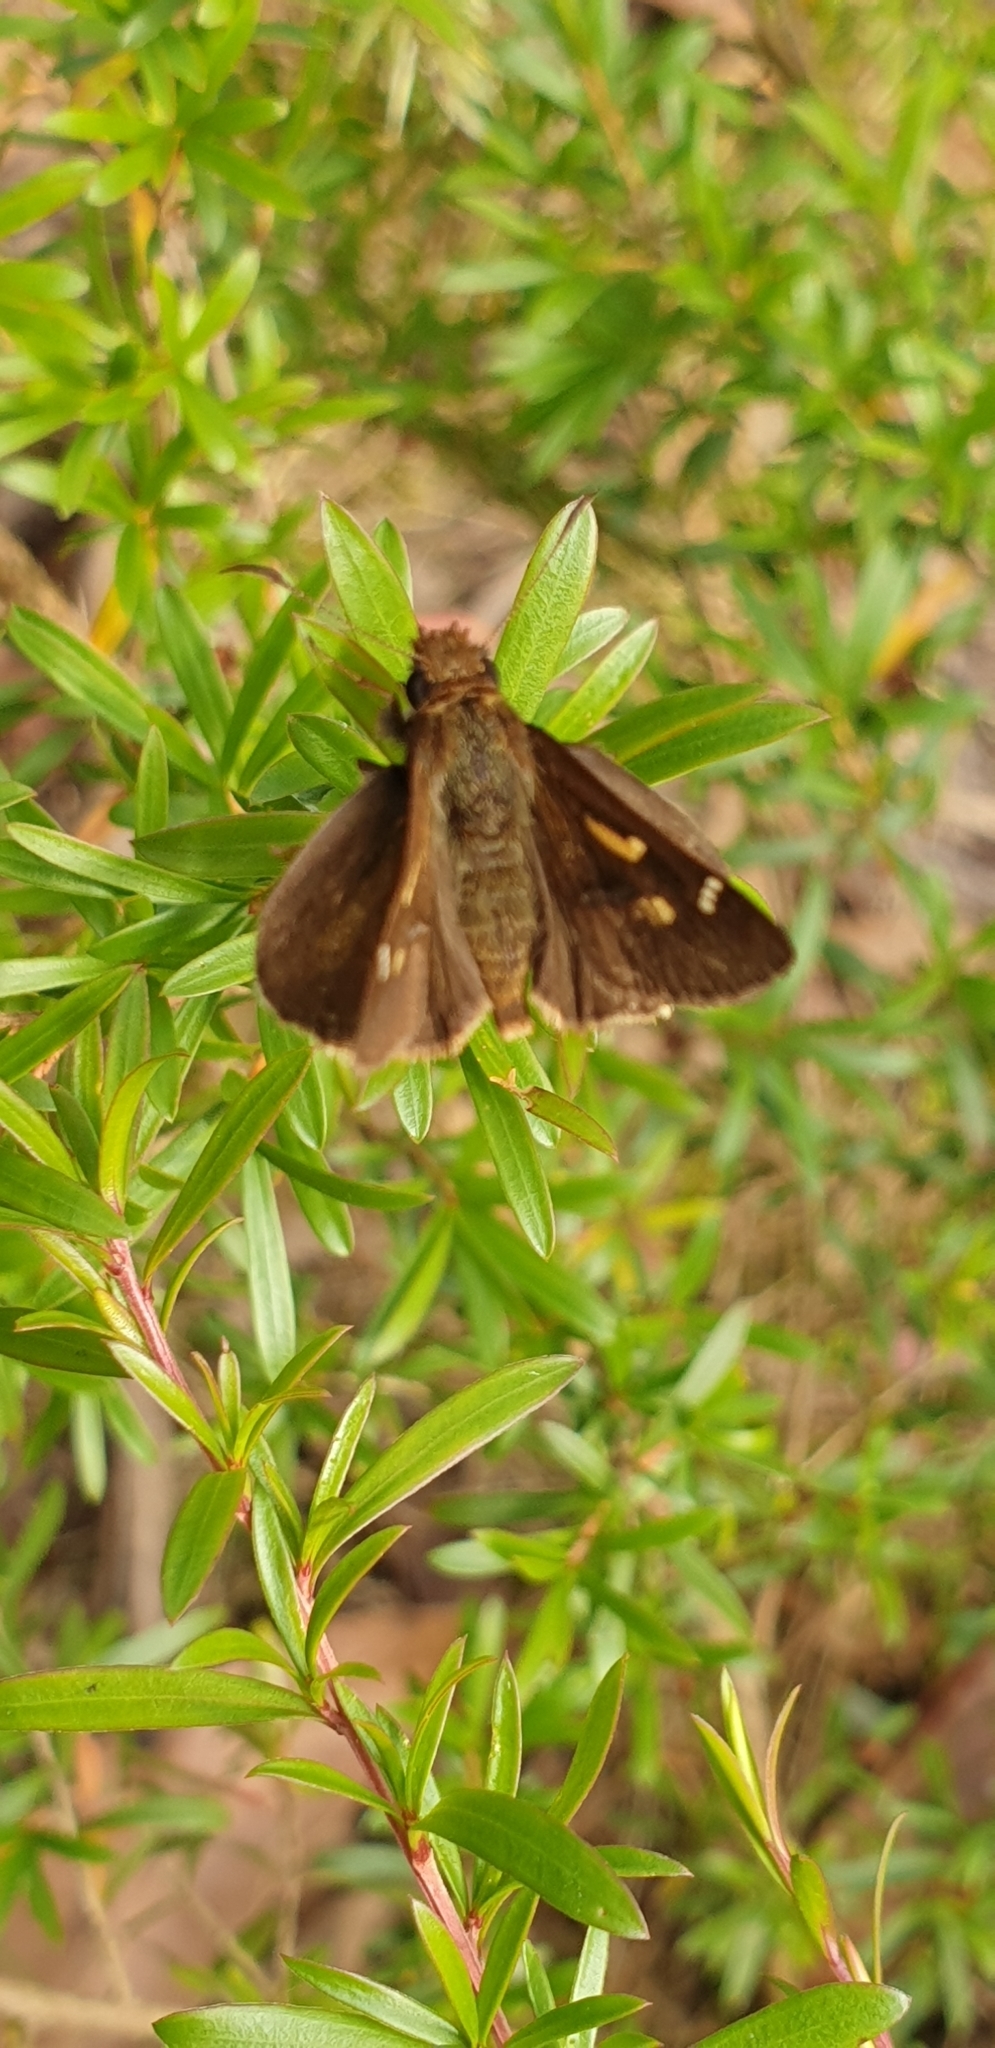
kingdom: Animalia
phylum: Arthropoda
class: Insecta
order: Lepidoptera
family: Hesperiidae
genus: Toxidia
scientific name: Toxidia doubledayi
